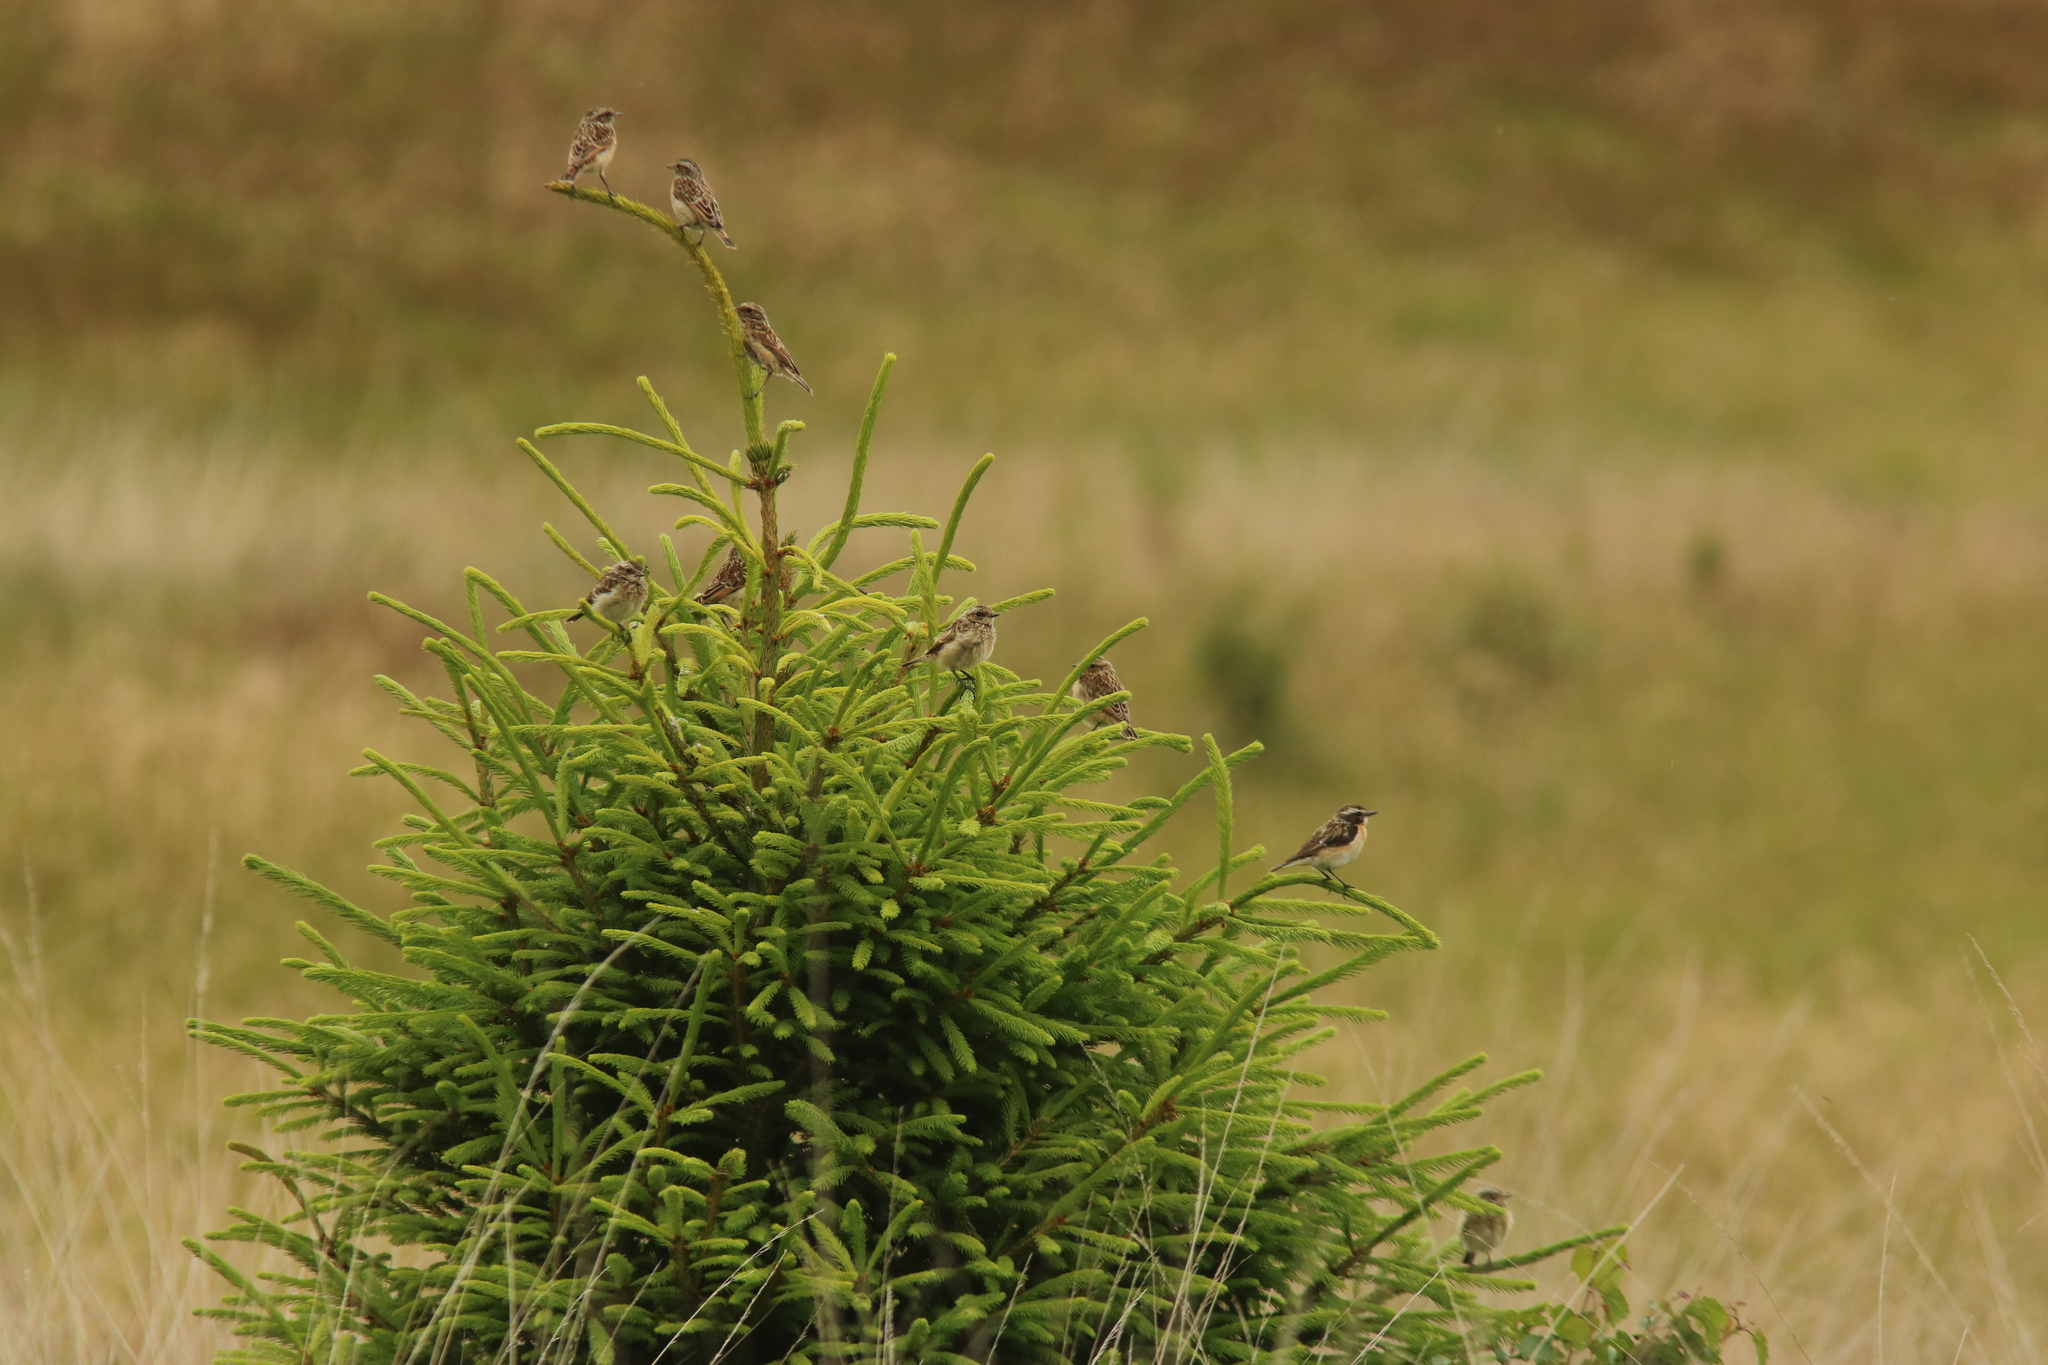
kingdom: Animalia
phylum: Chordata
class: Aves
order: Passeriformes
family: Muscicapidae
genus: Saxicola
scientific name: Saxicola rubetra
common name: Whinchat
